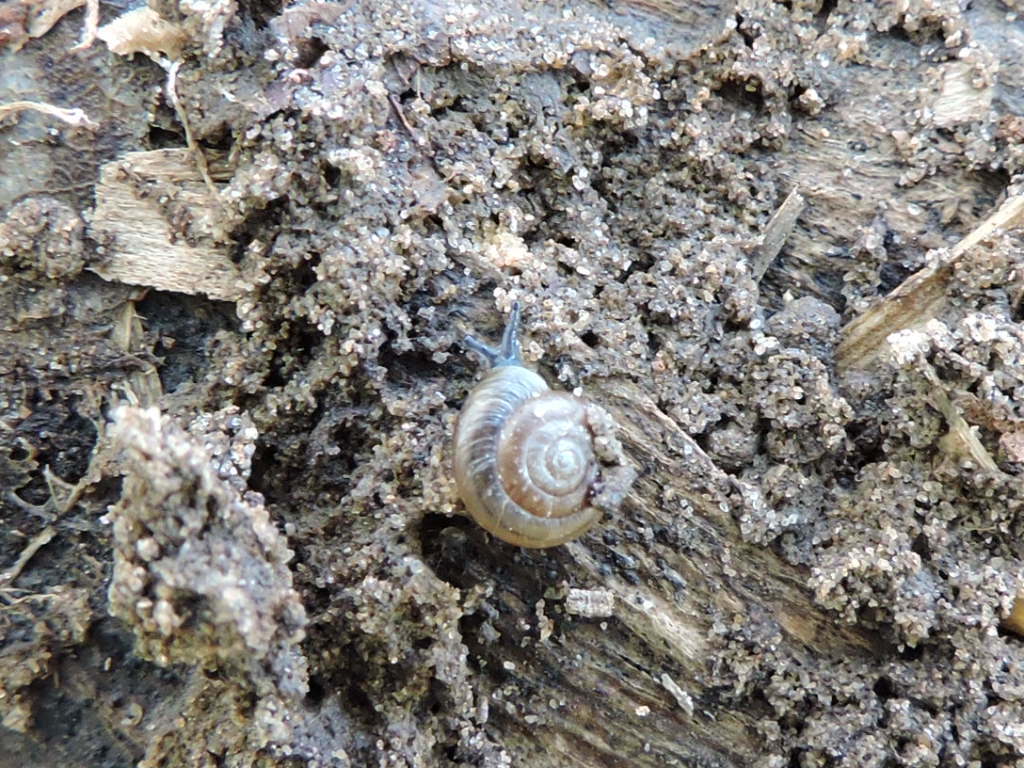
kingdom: Animalia
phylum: Mollusca
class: Gastropoda
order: Stylommatophora
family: Gastrodontidae
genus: Zonitoides
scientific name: Zonitoides arboreus
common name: Quick gloss
